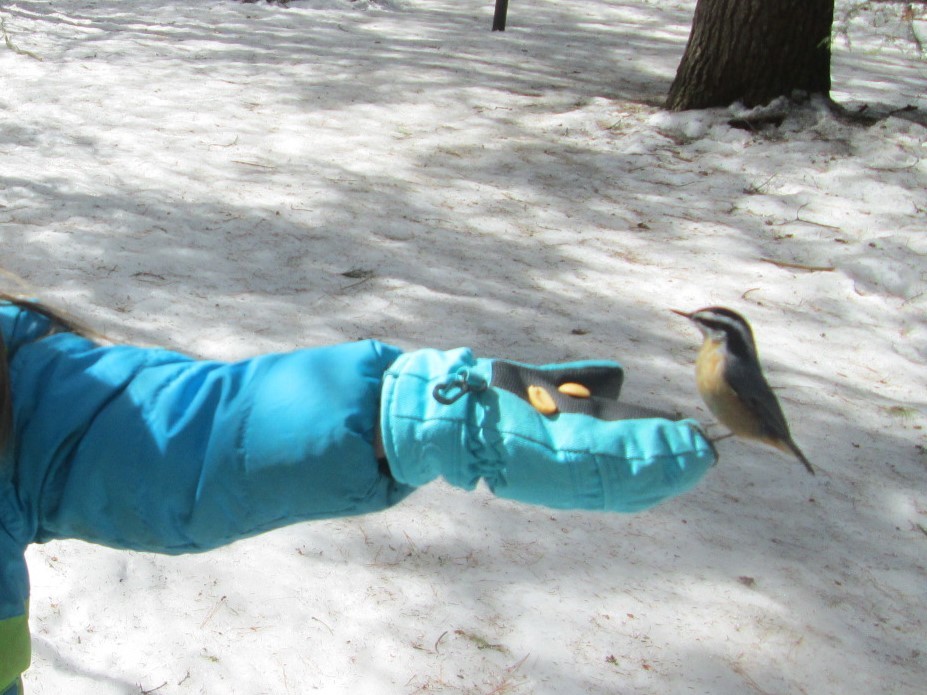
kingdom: Animalia
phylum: Chordata
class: Aves
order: Passeriformes
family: Sittidae
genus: Sitta
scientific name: Sitta canadensis
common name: Red-breasted nuthatch
